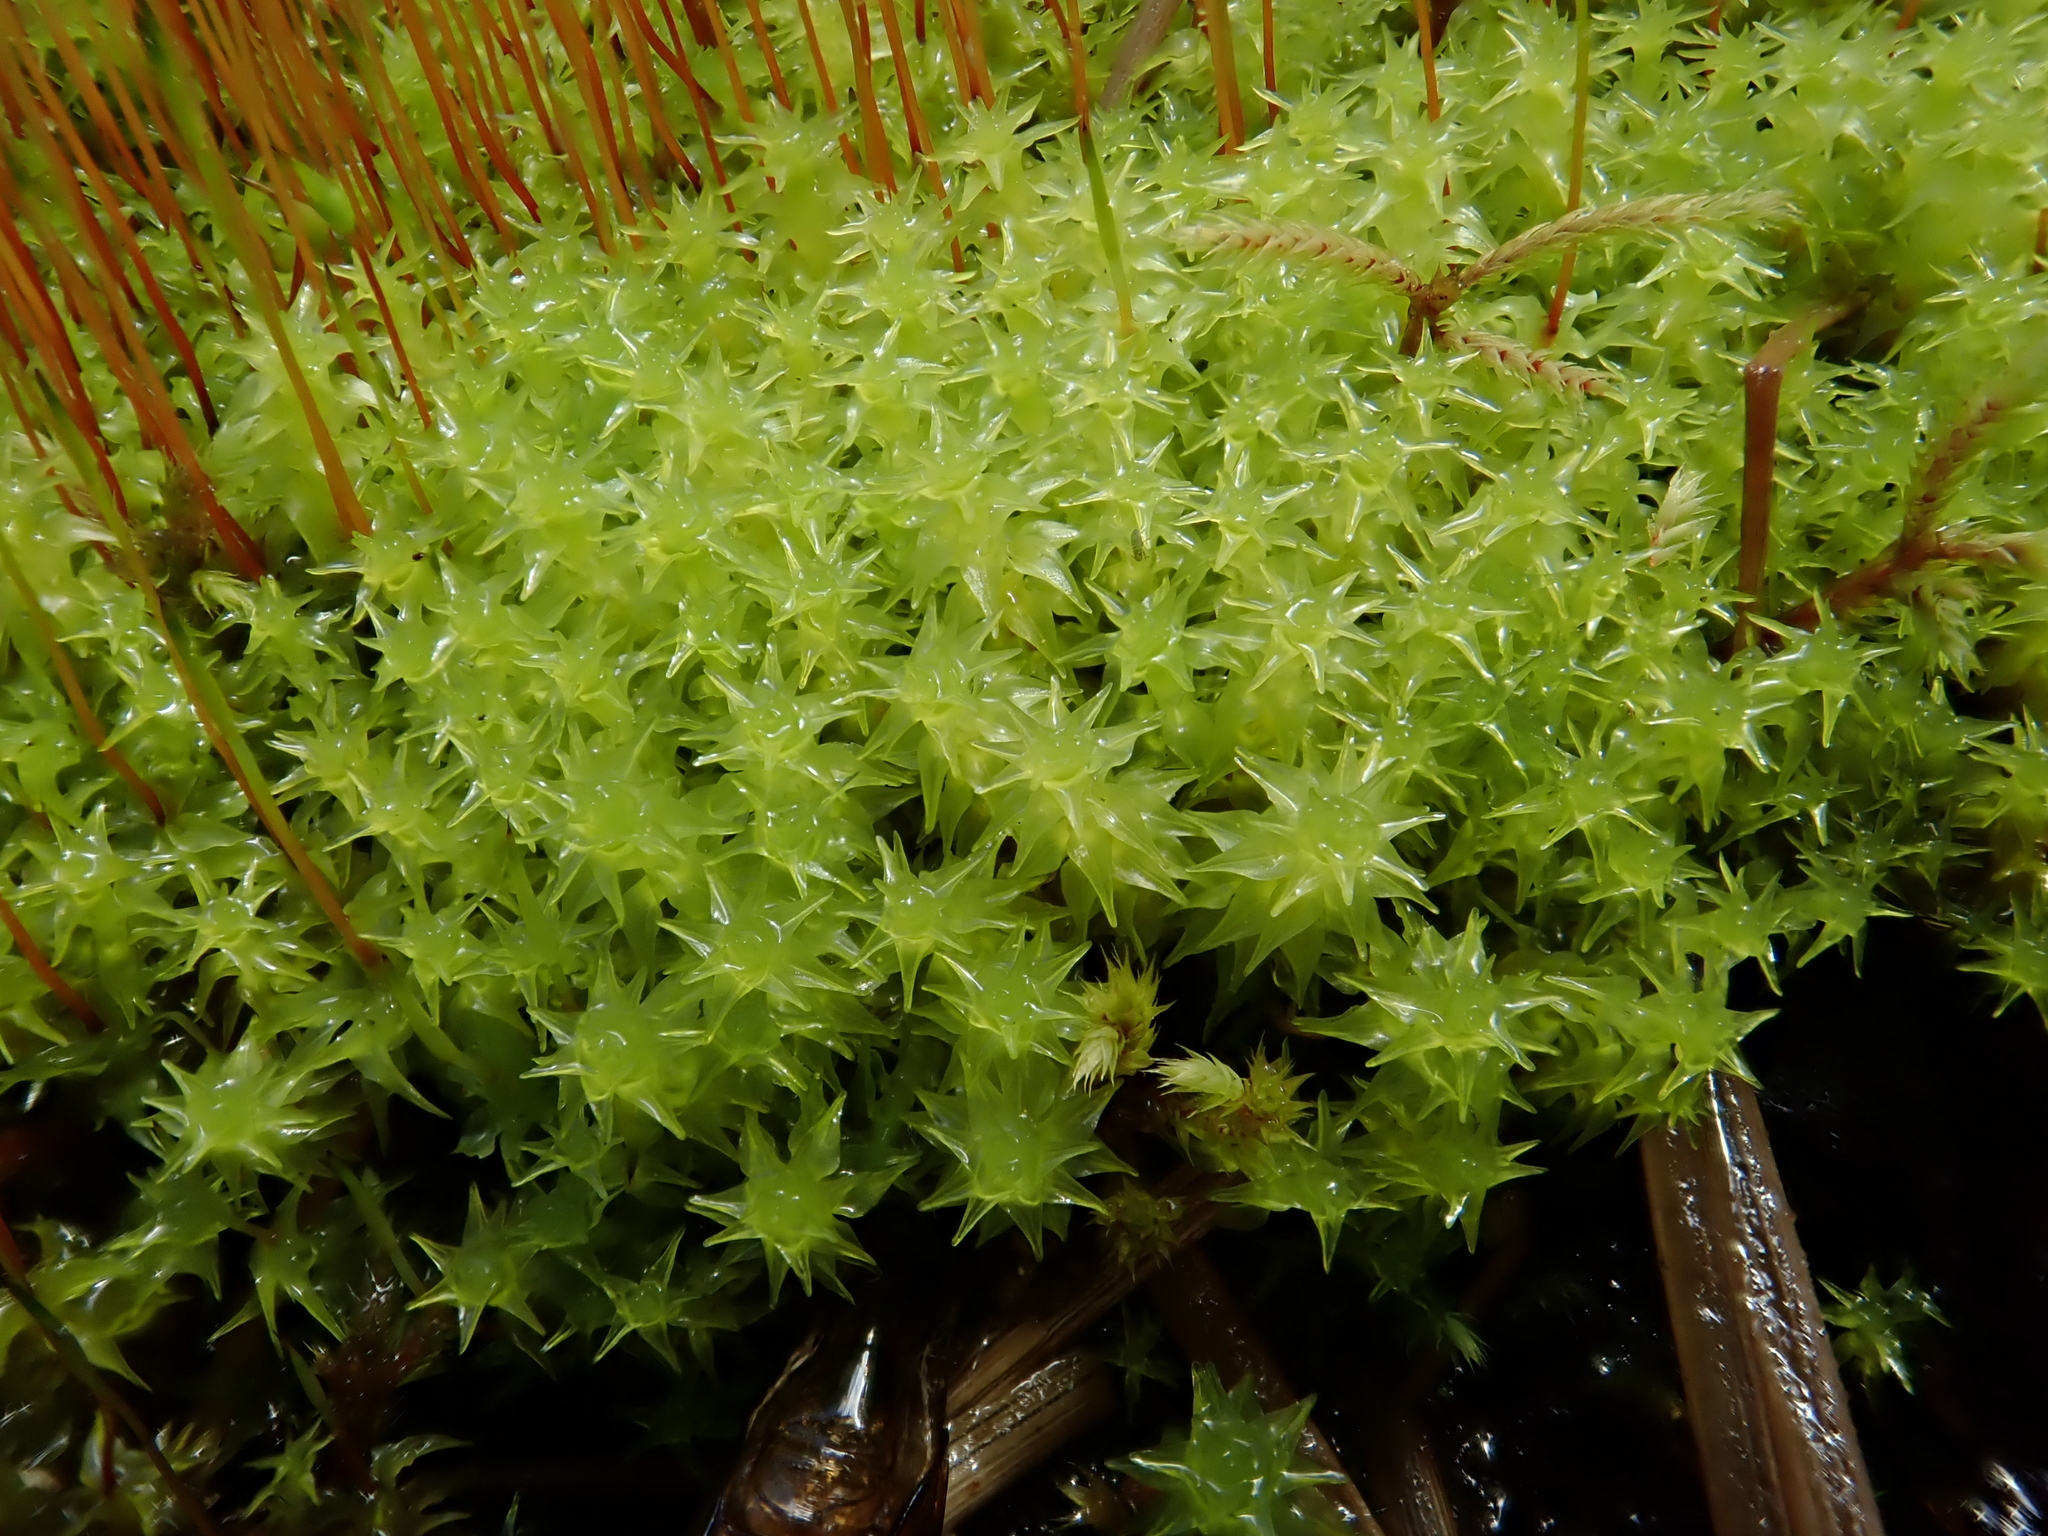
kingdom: Plantae
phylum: Bryophyta
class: Bryopsida
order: Dicranales
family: Aongstroemiaceae
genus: Diobelonella
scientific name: Diobelonella palustris
